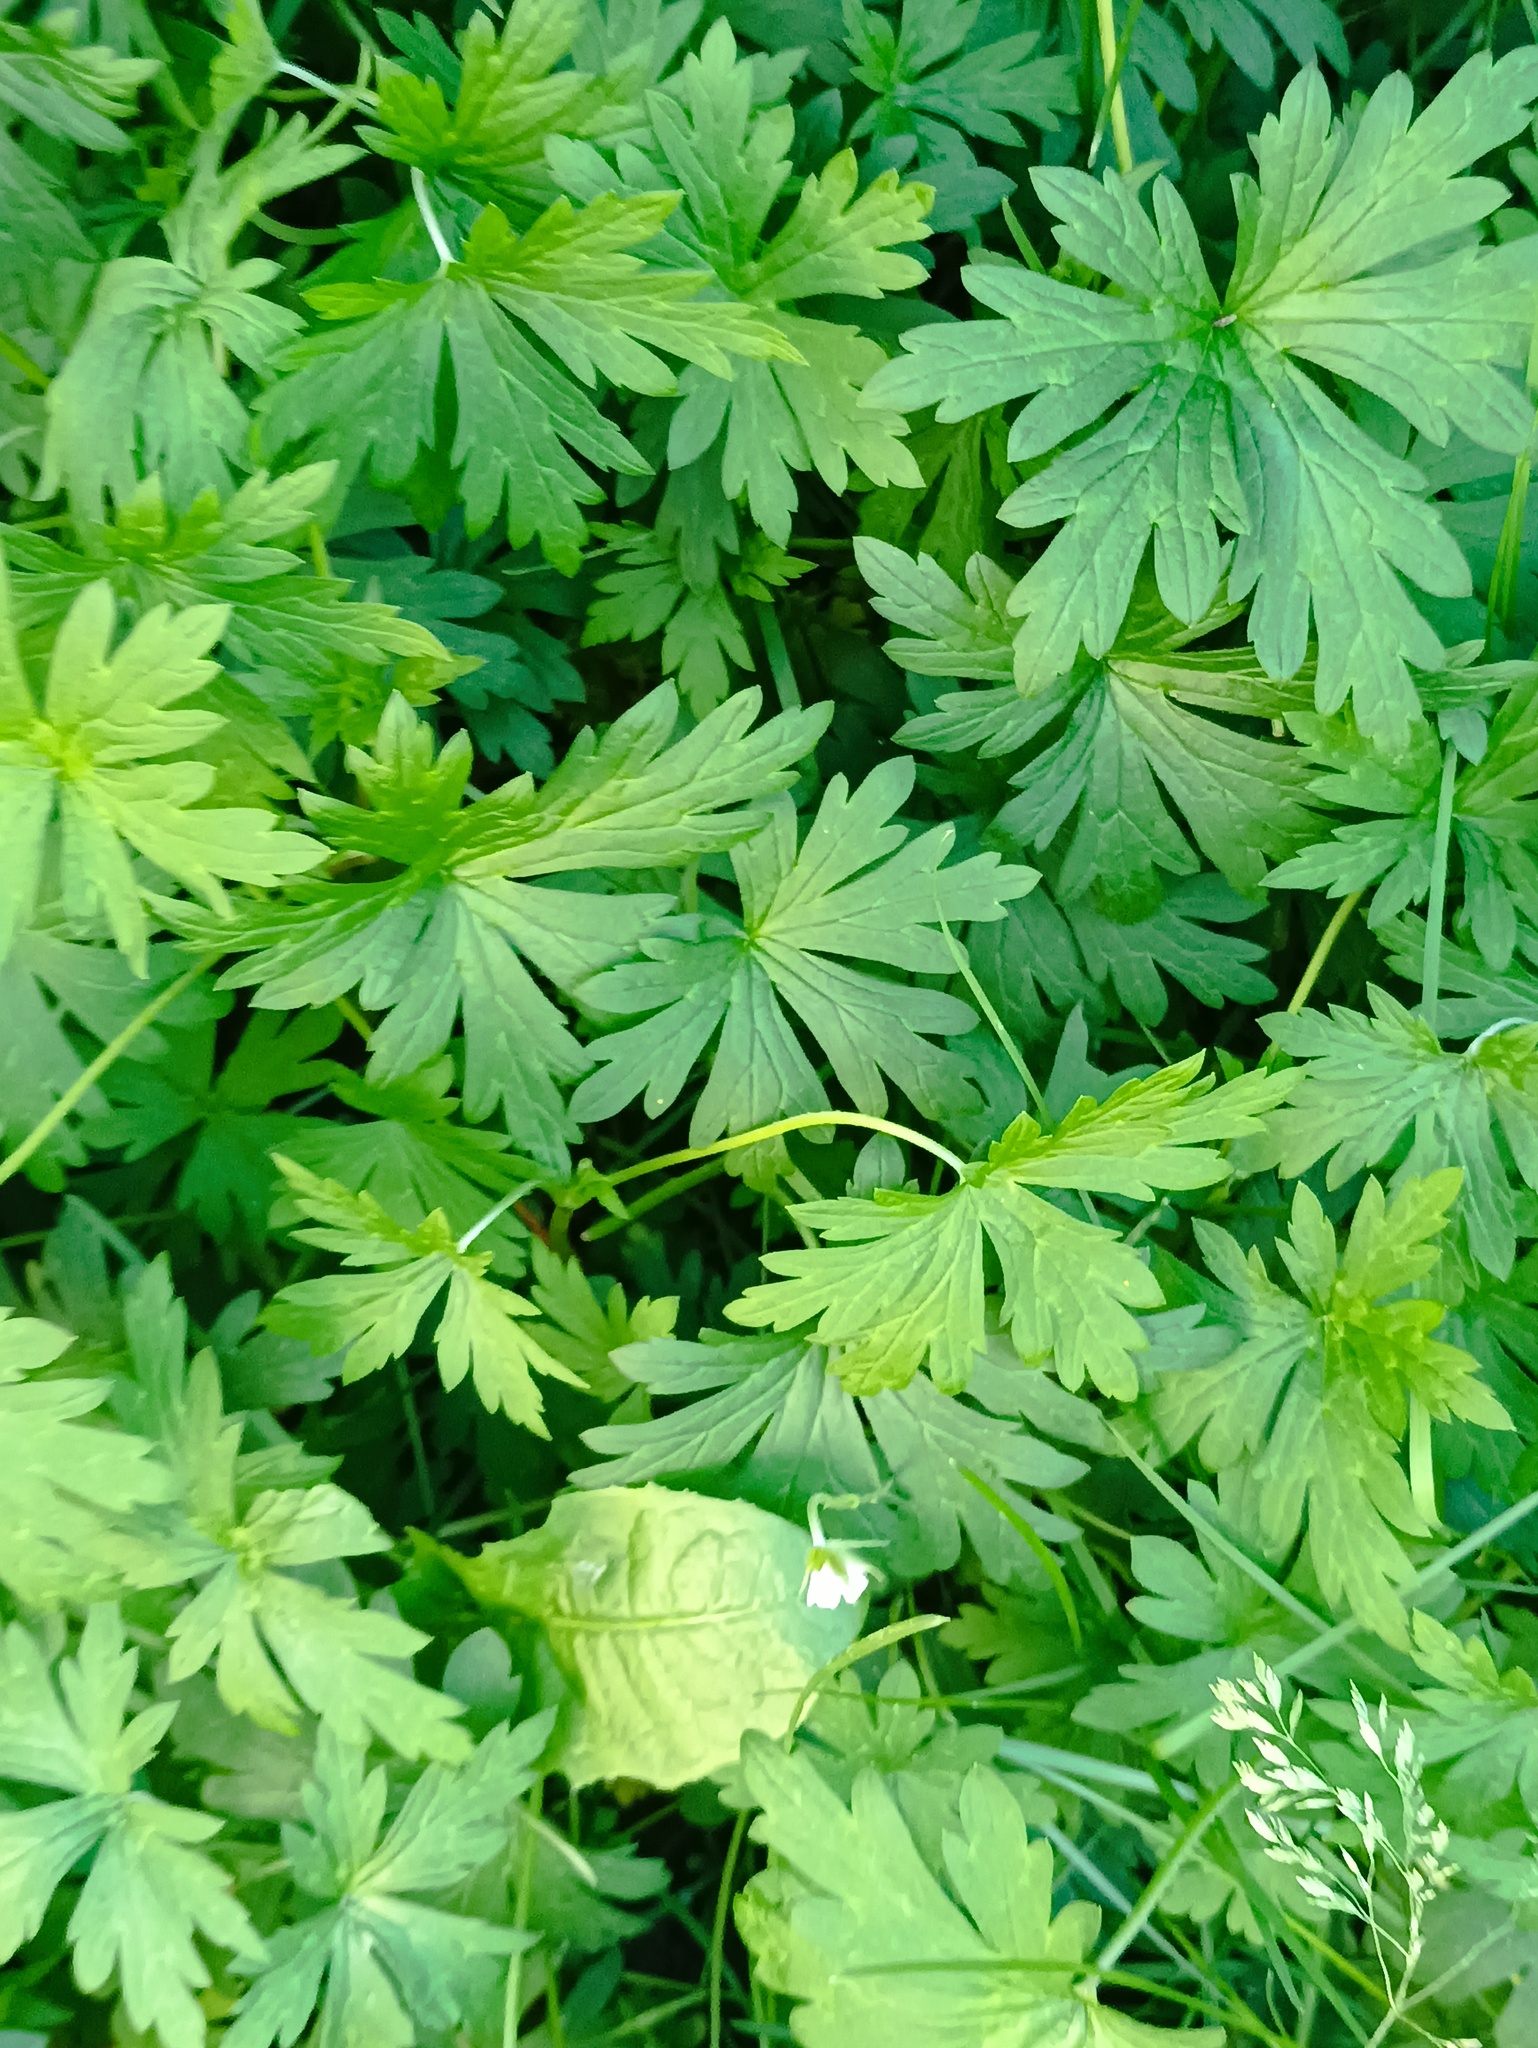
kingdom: Plantae
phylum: Tracheophyta
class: Magnoliopsida
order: Geraniales
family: Geraniaceae
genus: Geranium
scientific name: Geranium sibiricum
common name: Siberian crane's-bill
